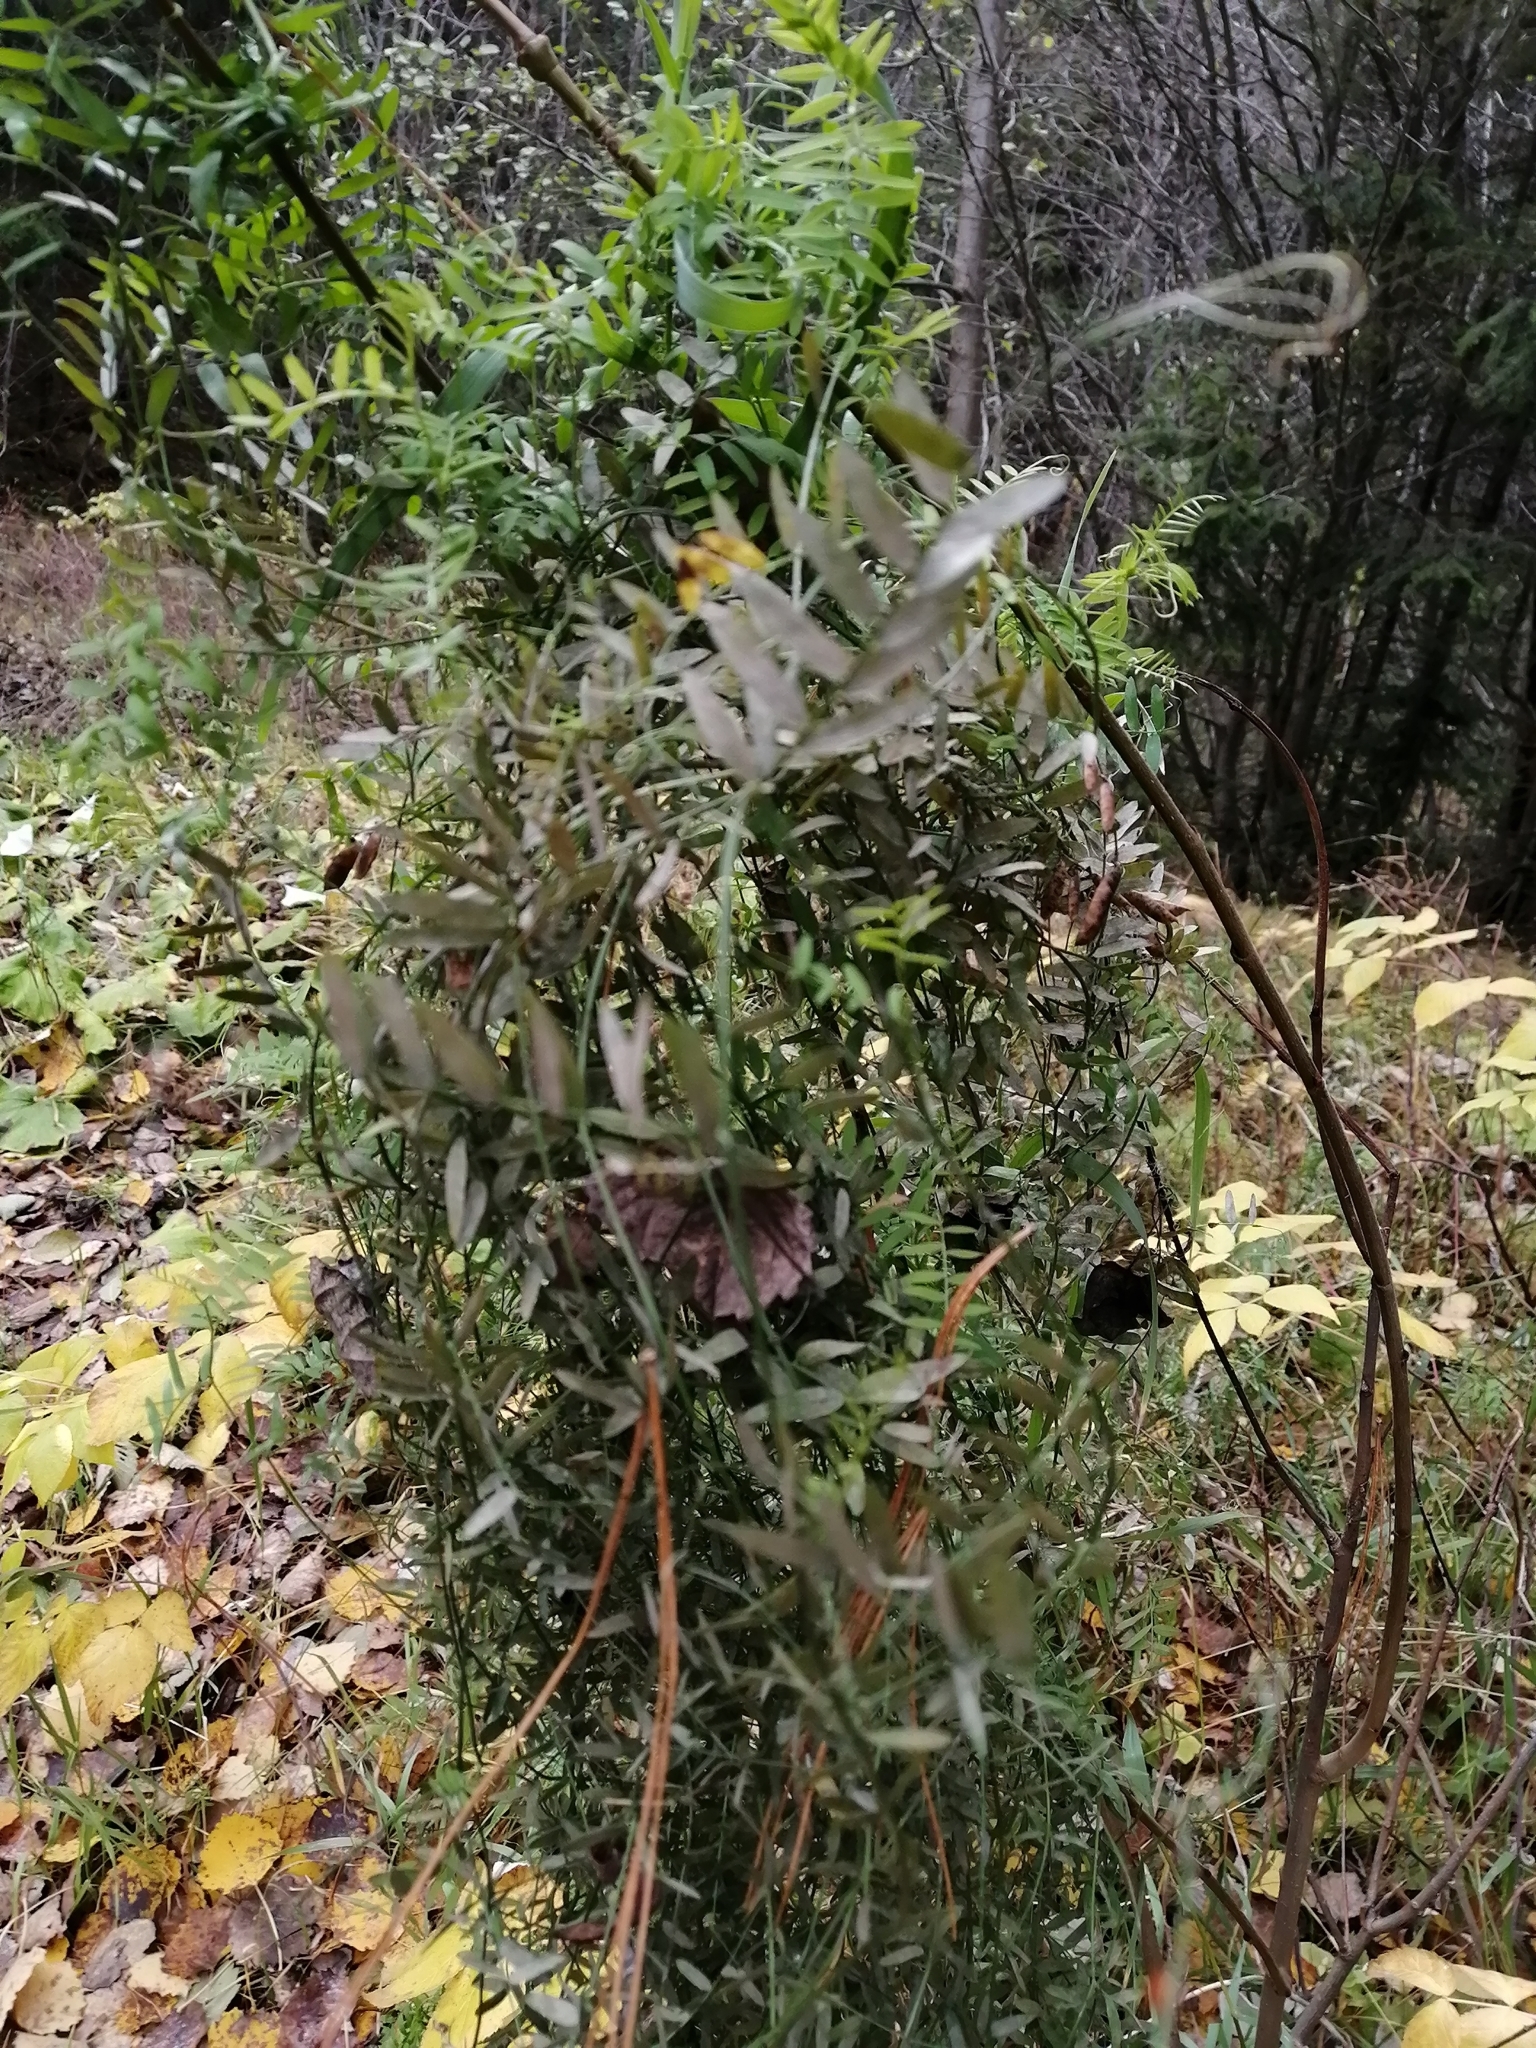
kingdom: Plantae
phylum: Tracheophyta
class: Magnoliopsida
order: Fabales
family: Fabaceae
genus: Vicia
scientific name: Vicia cracca
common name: Bird vetch
